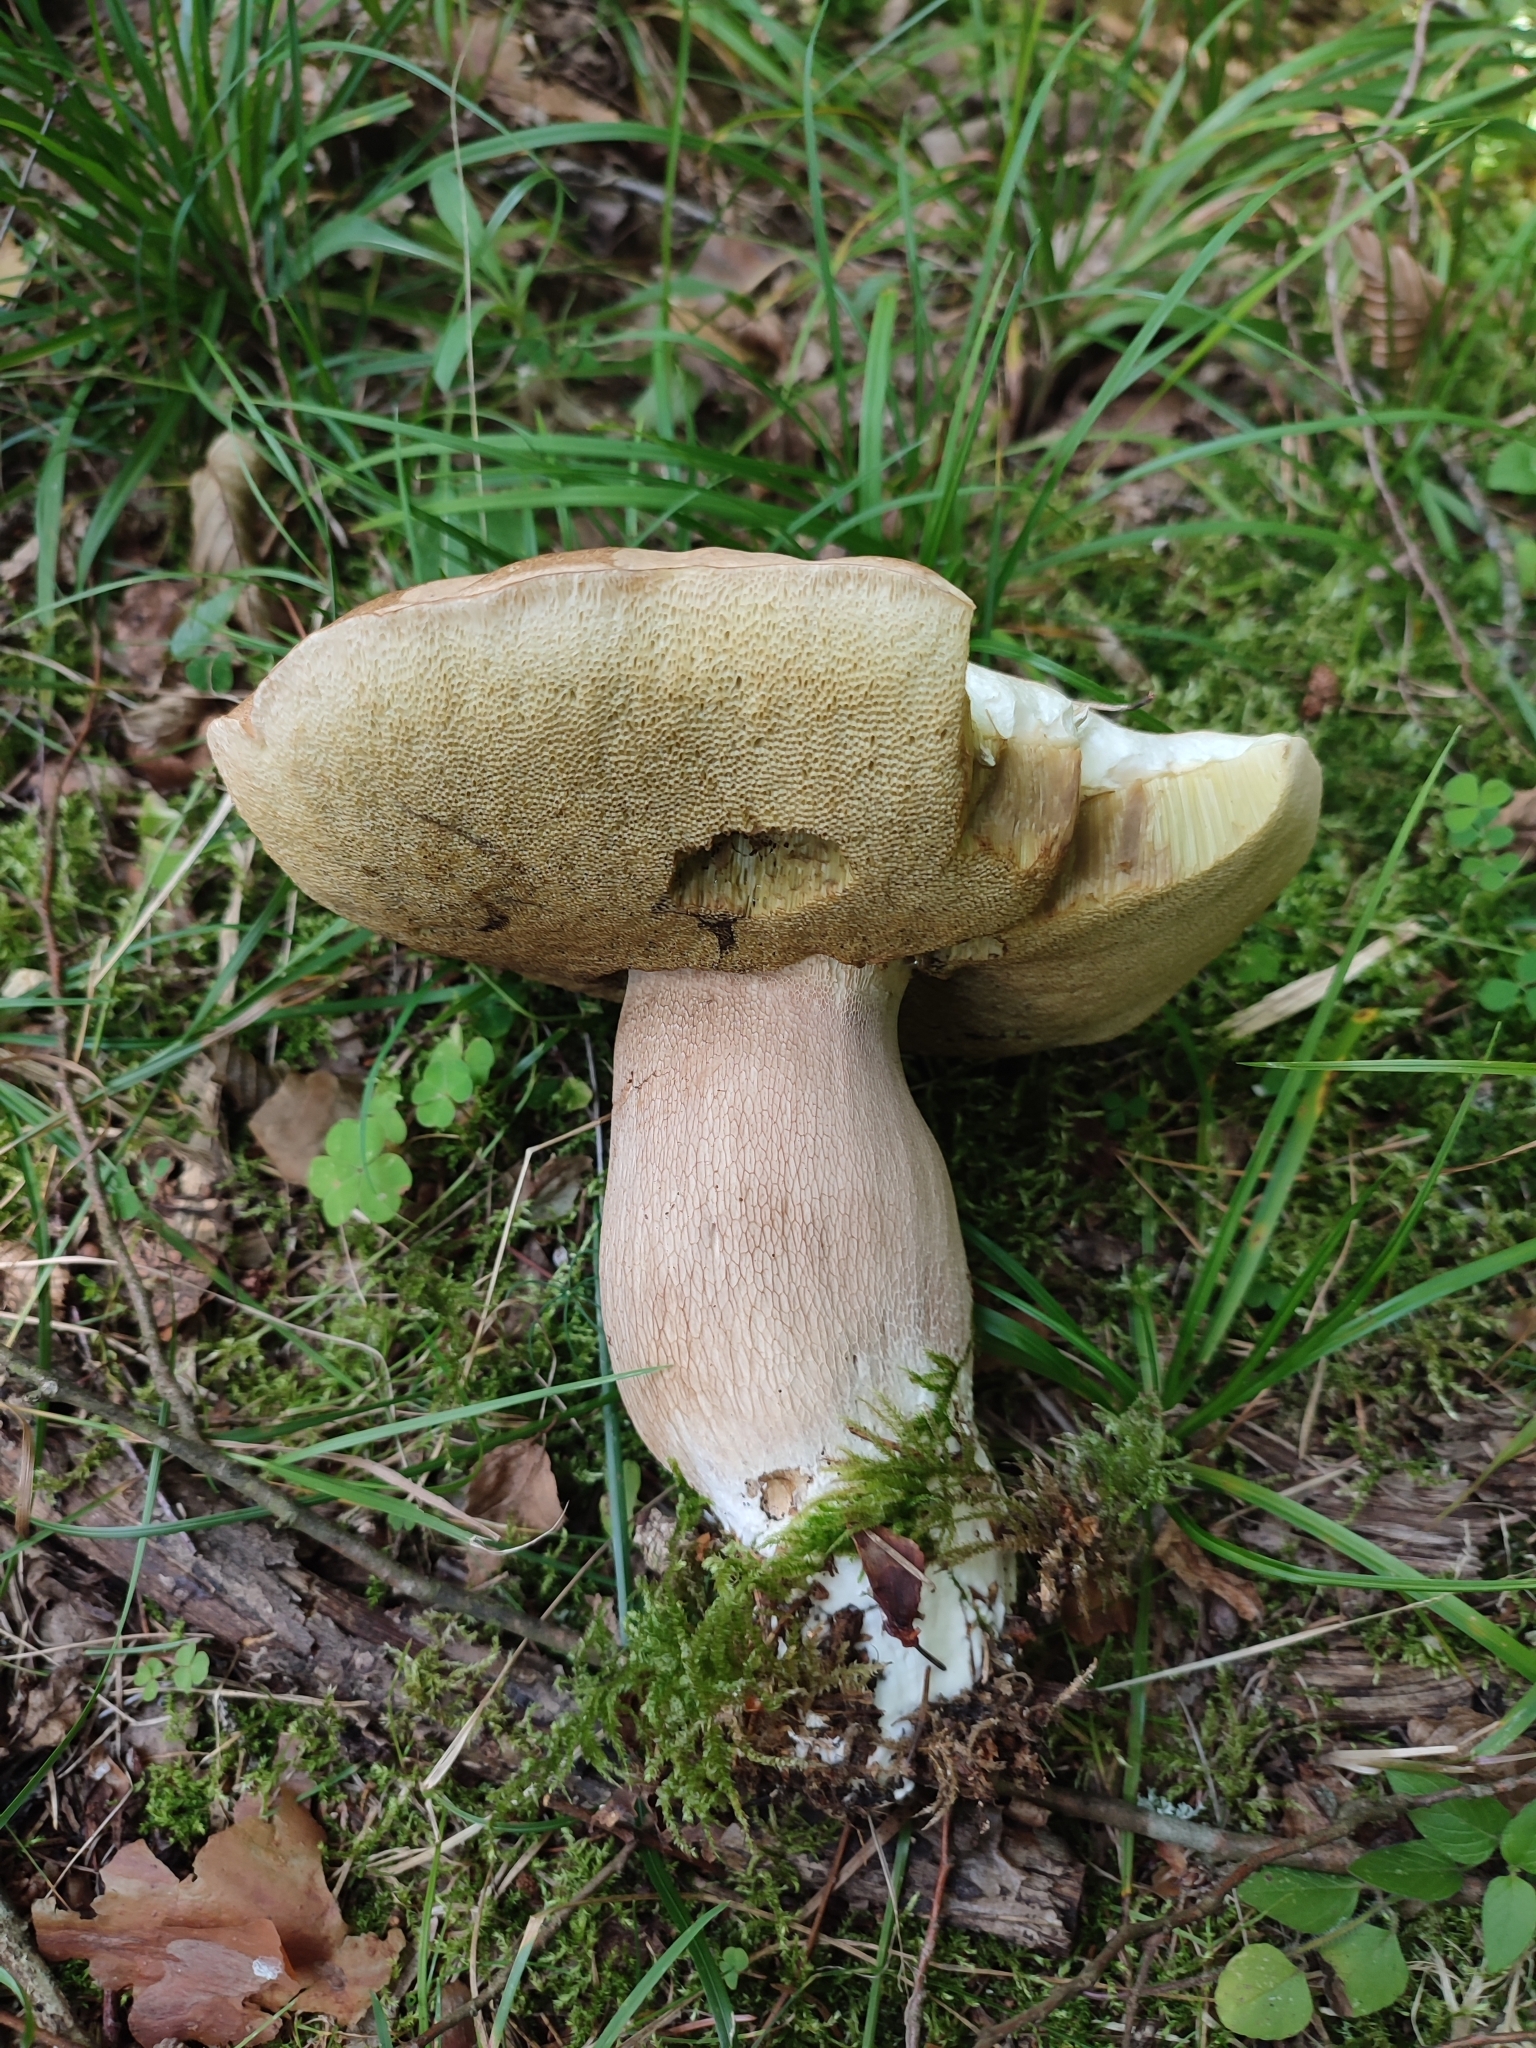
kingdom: Fungi
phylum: Basidiomycota
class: Agaricomycetes
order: Boletales
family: Boletaceae
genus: Boletus
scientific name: Boletus edulis
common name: Cep
